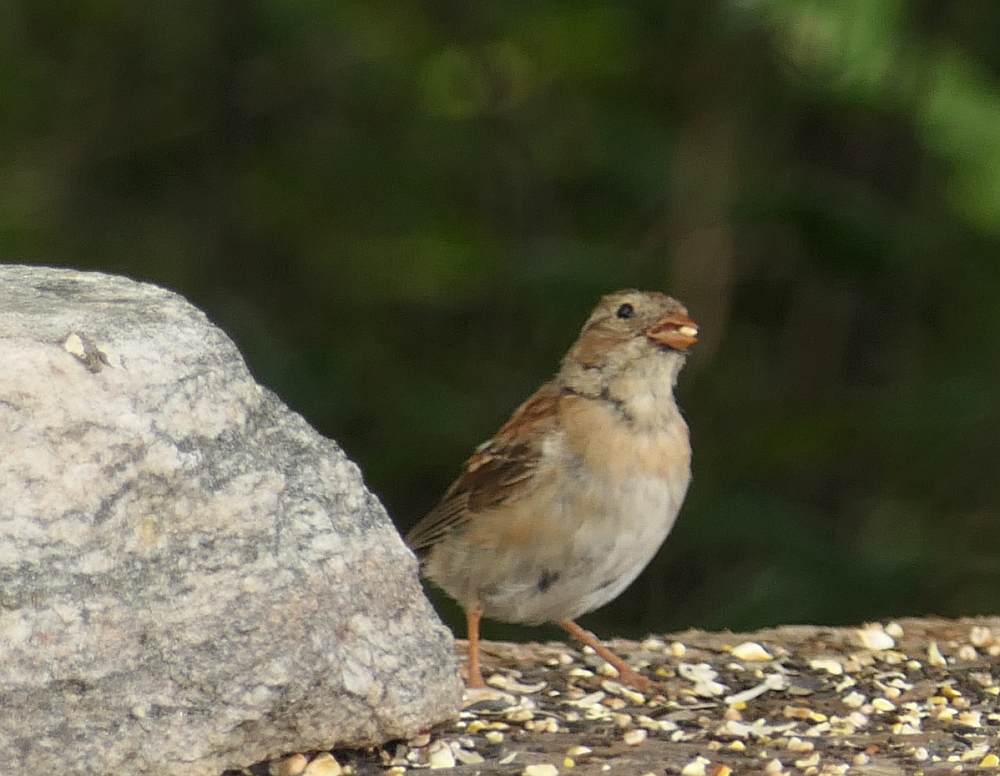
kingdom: Animalia
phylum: Chordata
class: Aves
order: Passeriformes
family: Passerellidae
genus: Spizella
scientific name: Spizella pusilla
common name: Field sparrow
